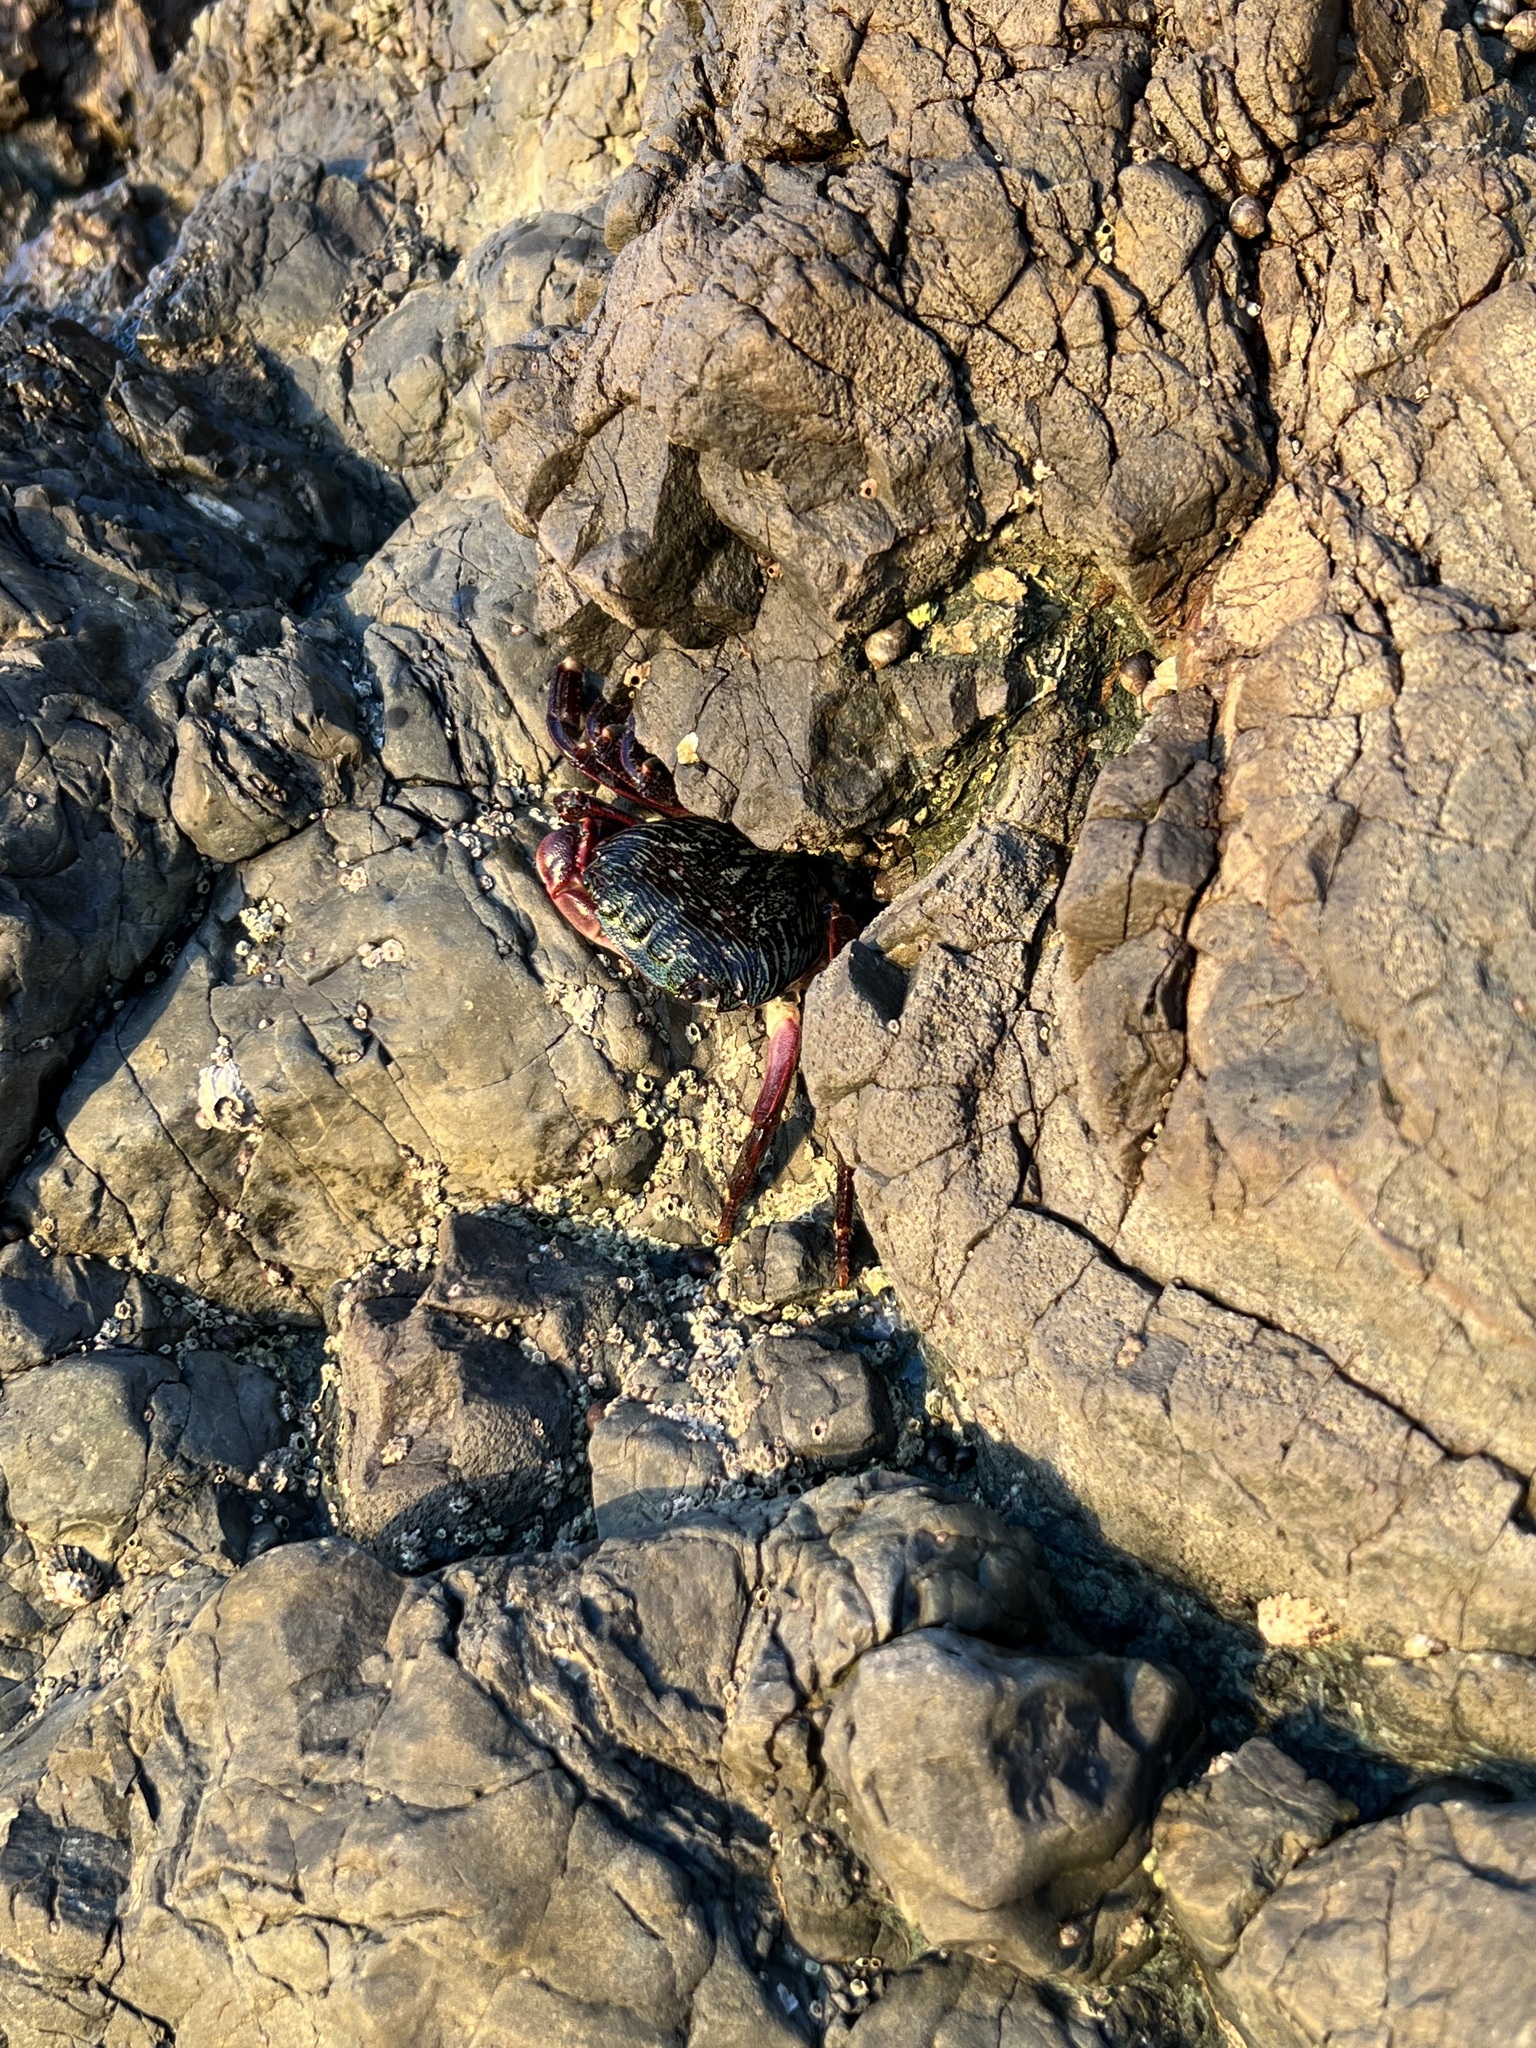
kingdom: Animalia
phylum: Arthropoda
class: Malacostraca
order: Decapoda
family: Grapsidae
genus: Pachygrapsus
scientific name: Pachygrapsus crassipes
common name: Striped shore crab
